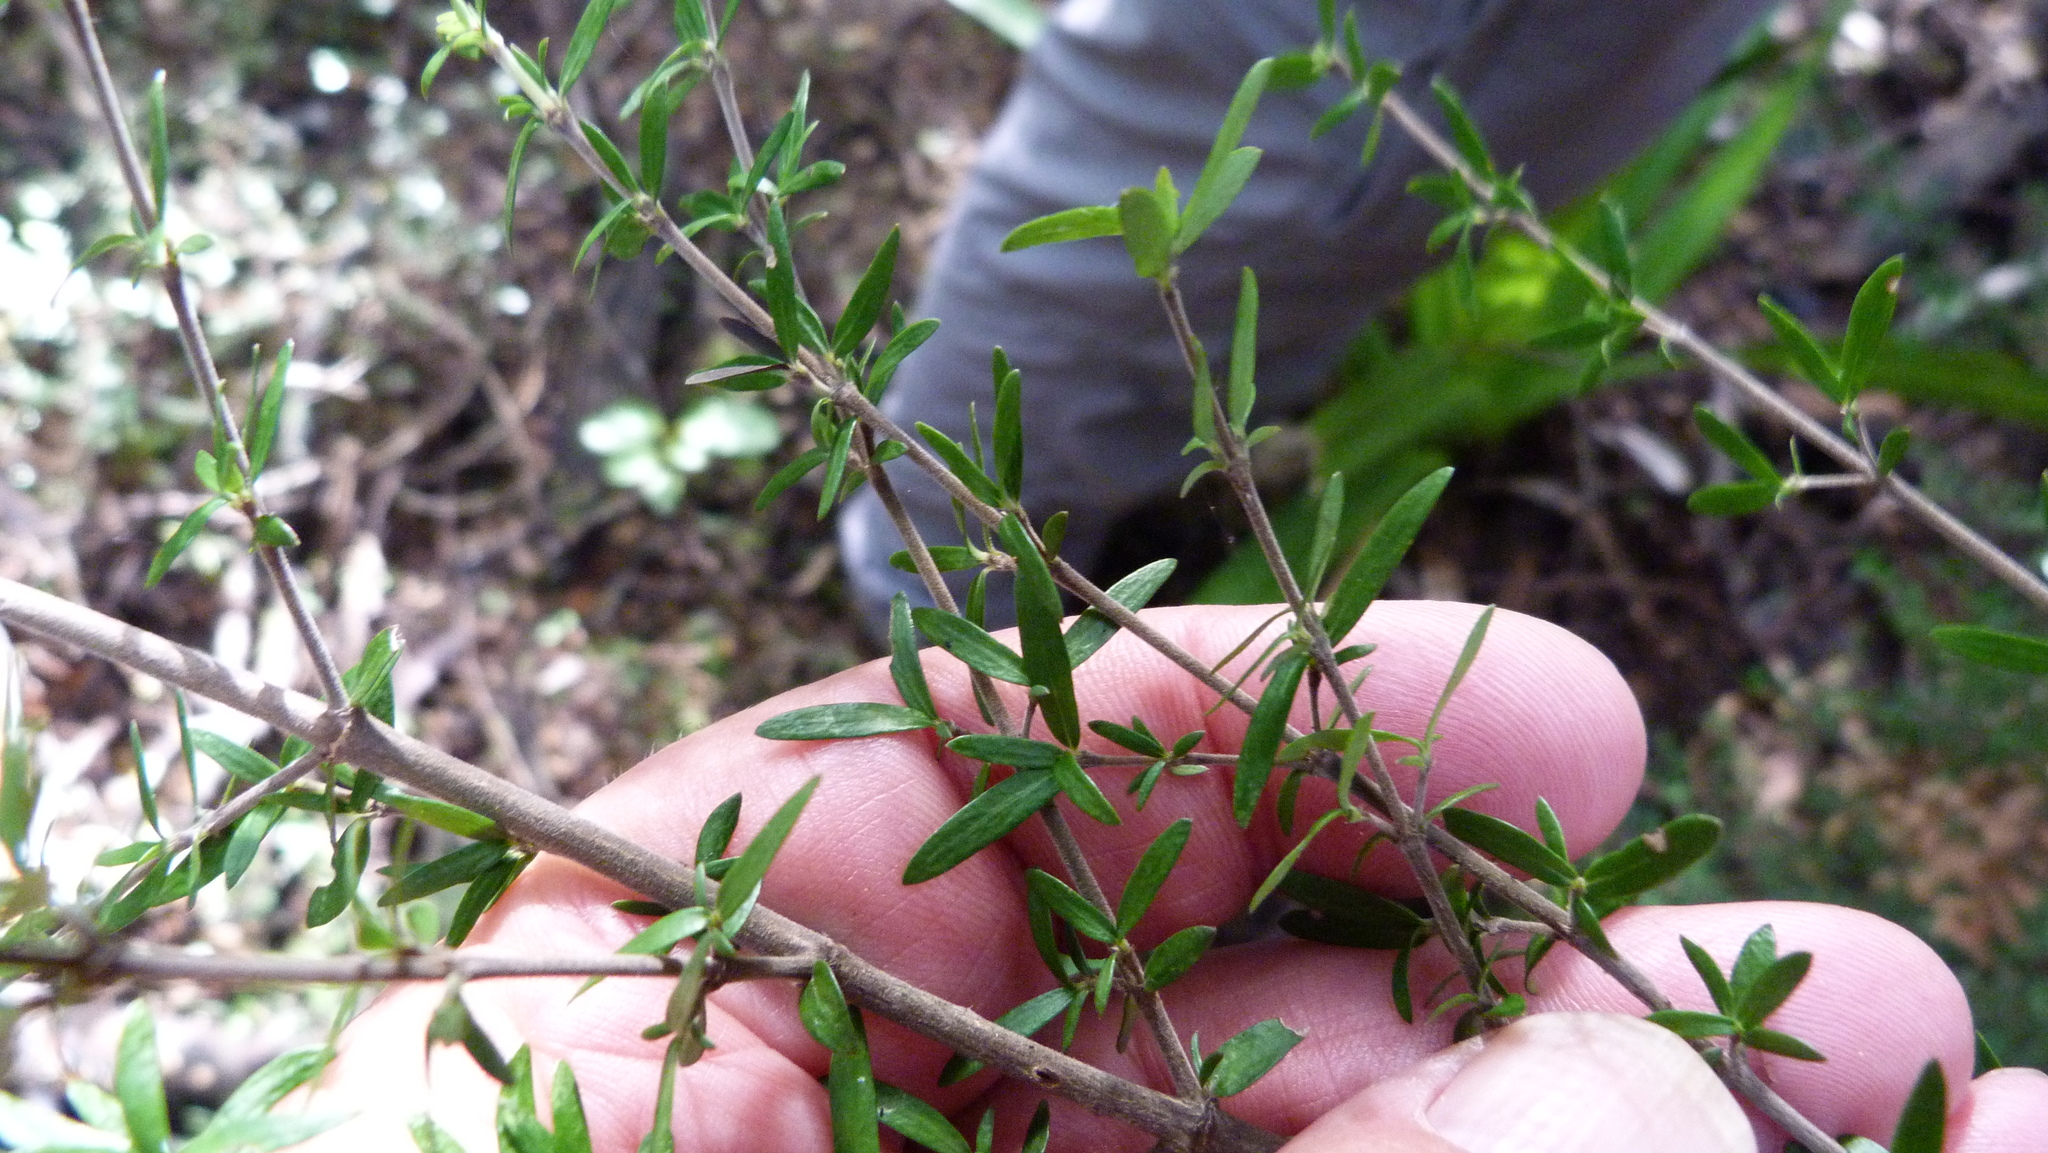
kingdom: Plantae
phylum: Tracheophyta
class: Magnoliopsida
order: Gentianales
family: Rubiaceae
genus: Coprosma
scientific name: Coprosma linariifolia
